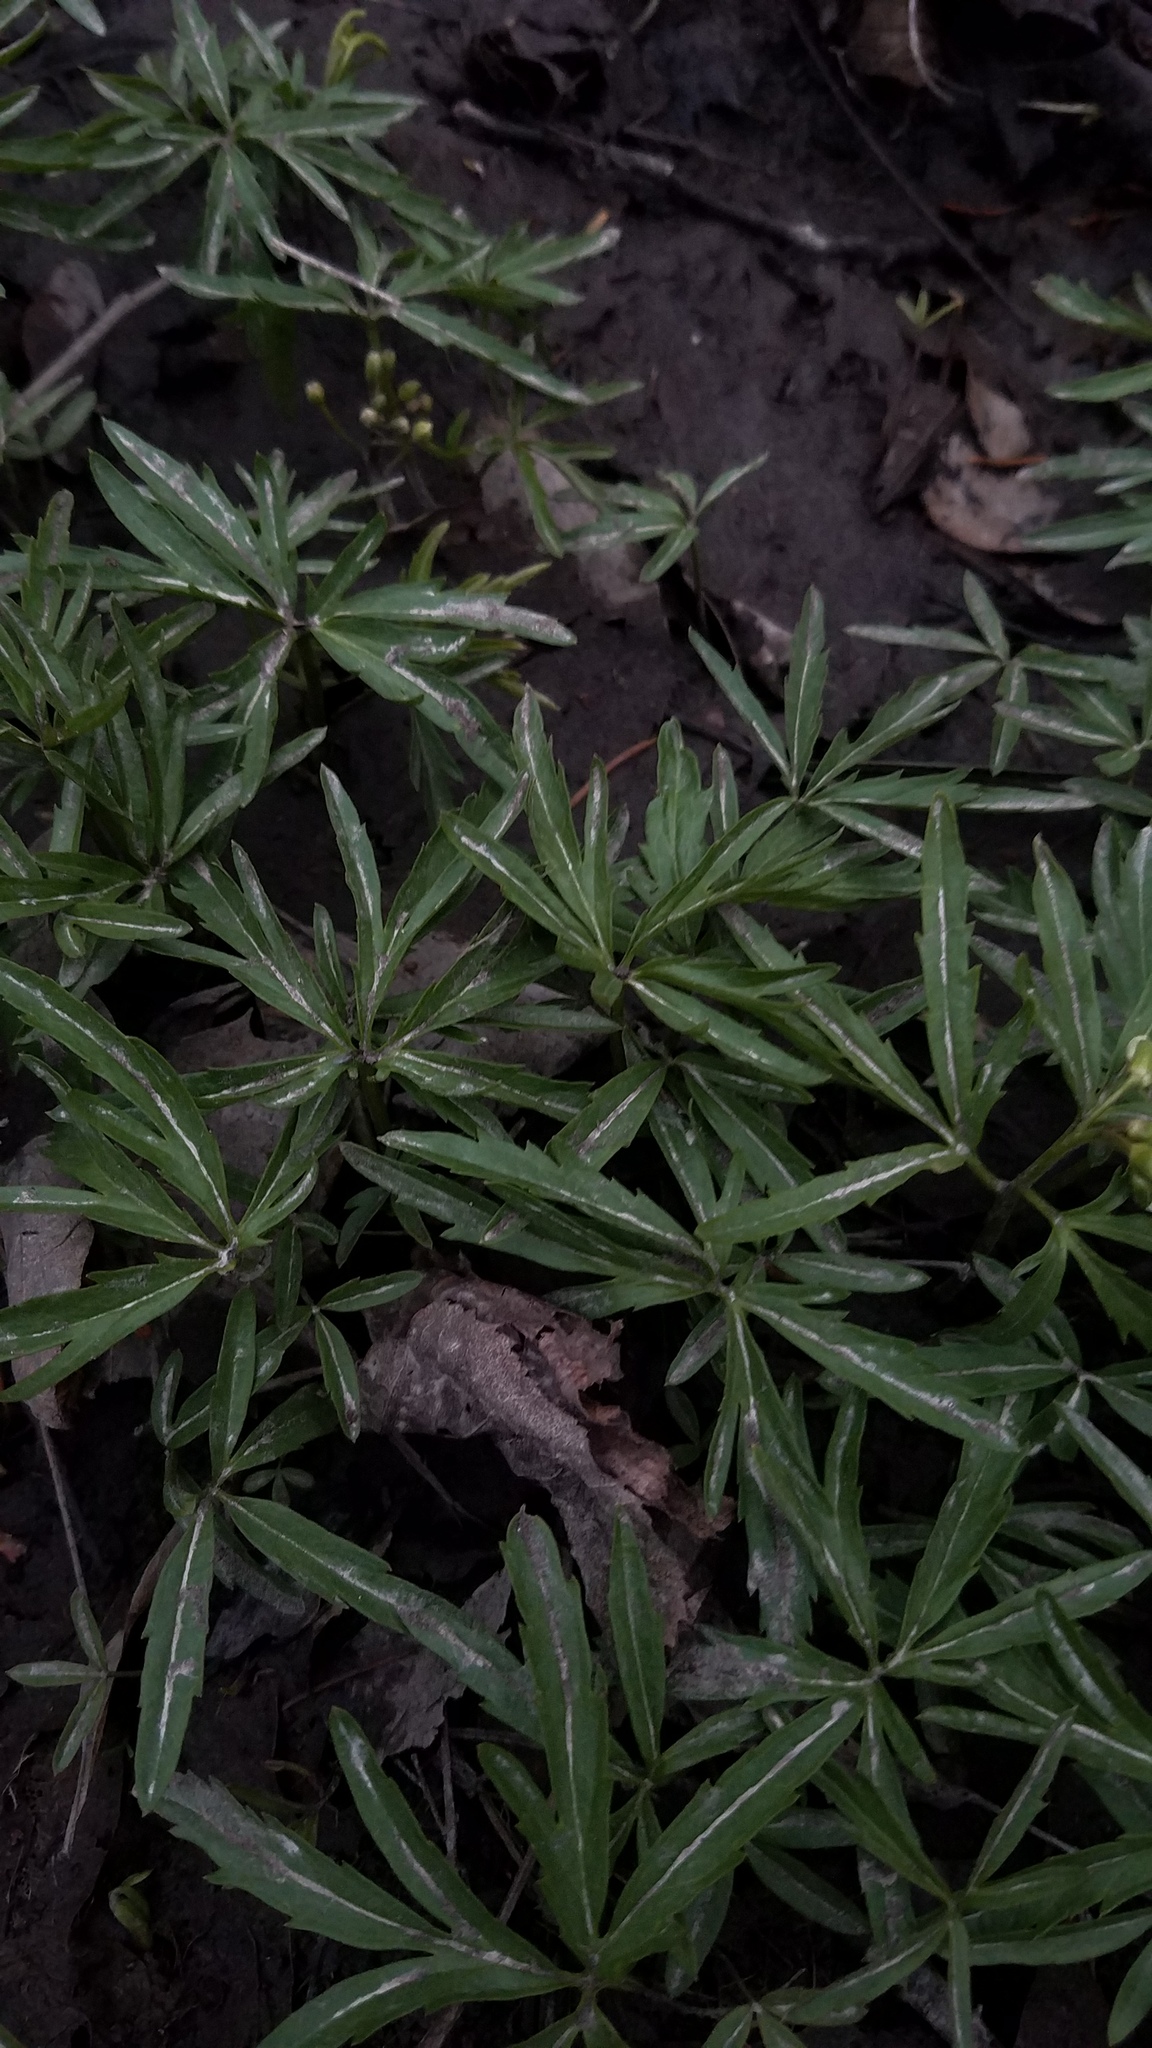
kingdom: Plantae
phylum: Tracheophyta
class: Magnoliopsida
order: Brassicales
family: Brassicaceae
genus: Cardamine
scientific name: Cardamine concatenata
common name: Cut-leaf toothcup
